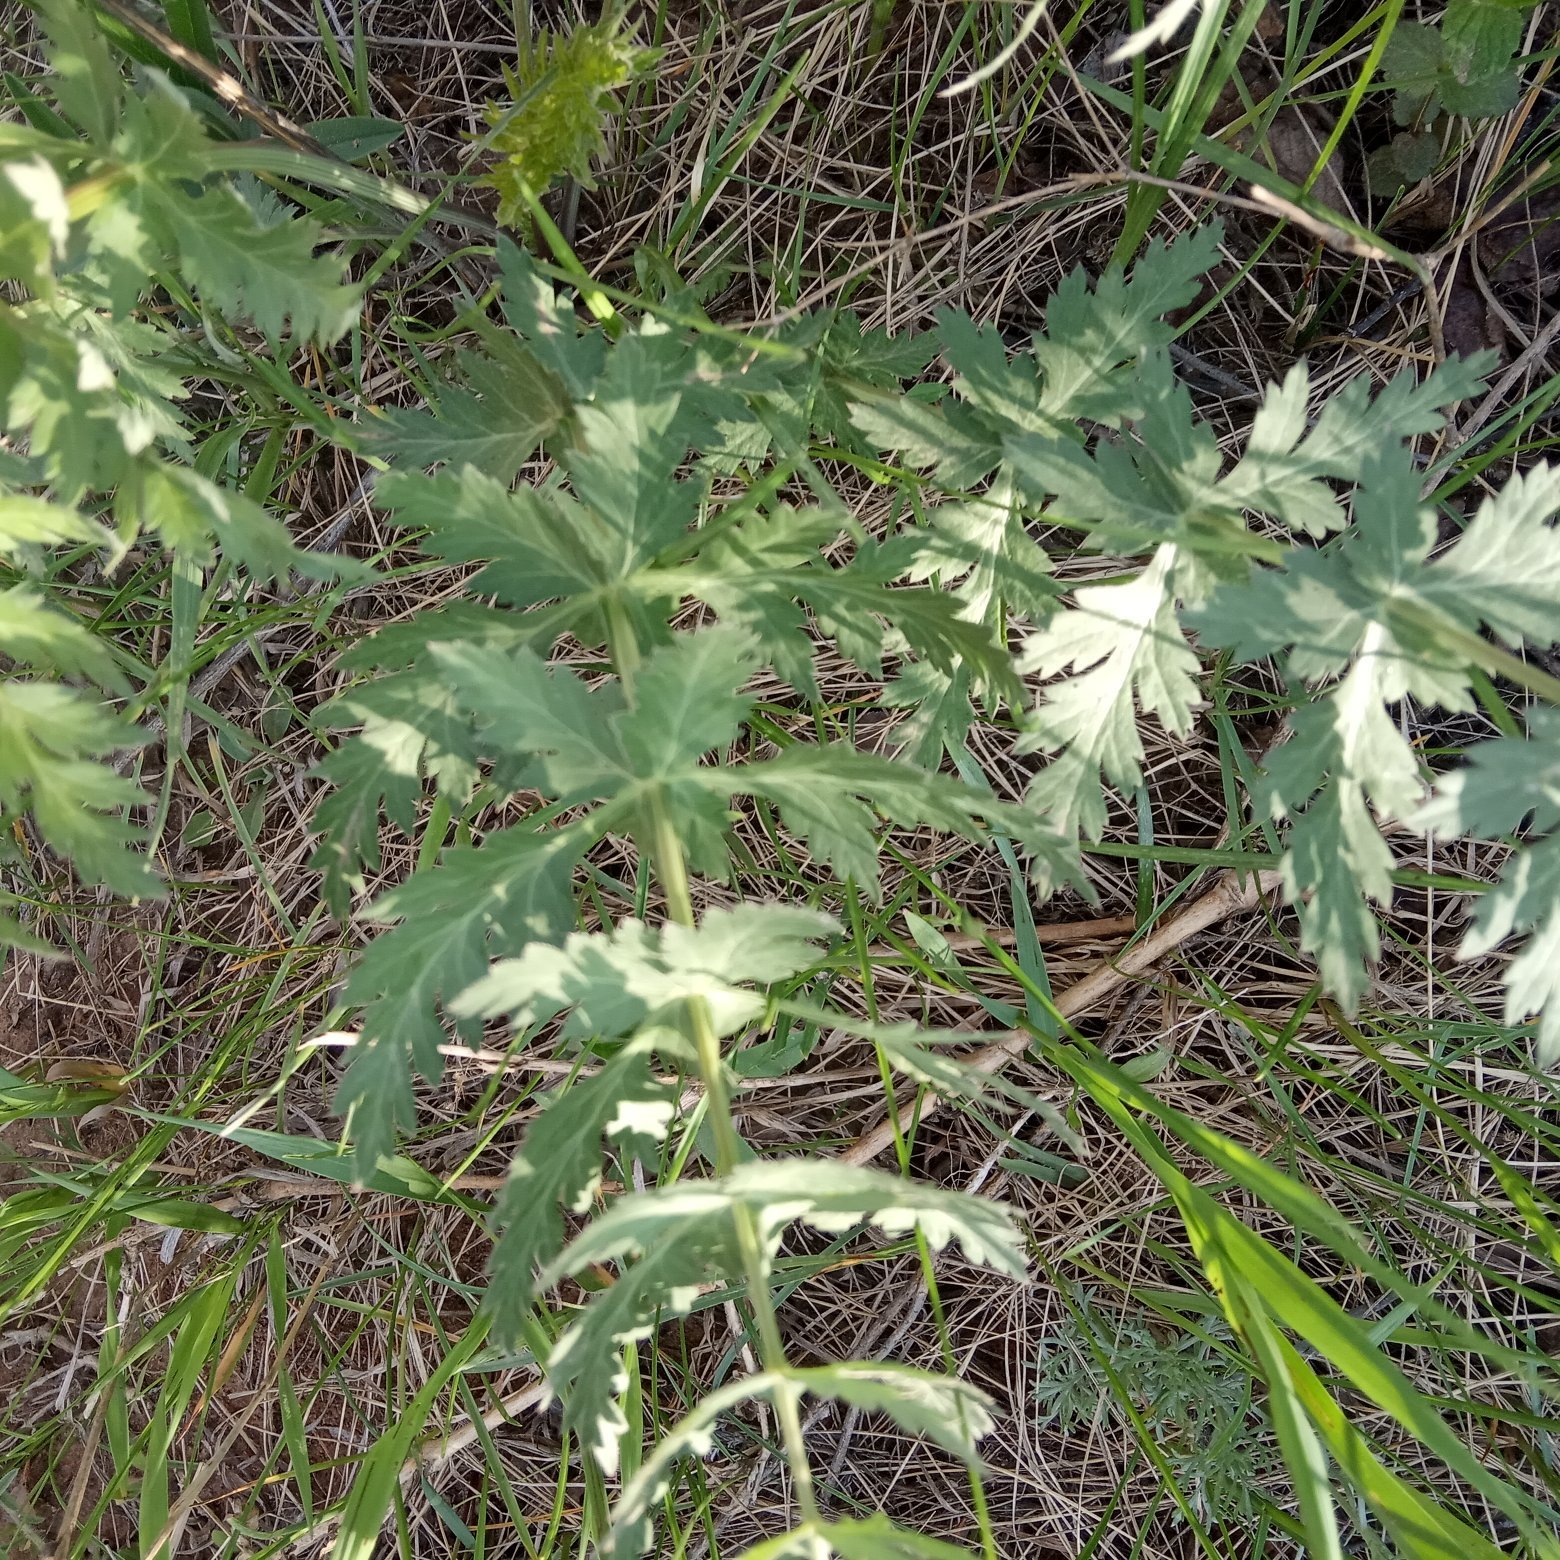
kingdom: Plantae
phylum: Tracheophyta
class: Magnoliopsida
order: Apiales
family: Apiaceae
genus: Seseli
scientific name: Seseli libanotis
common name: Mooncarrot
